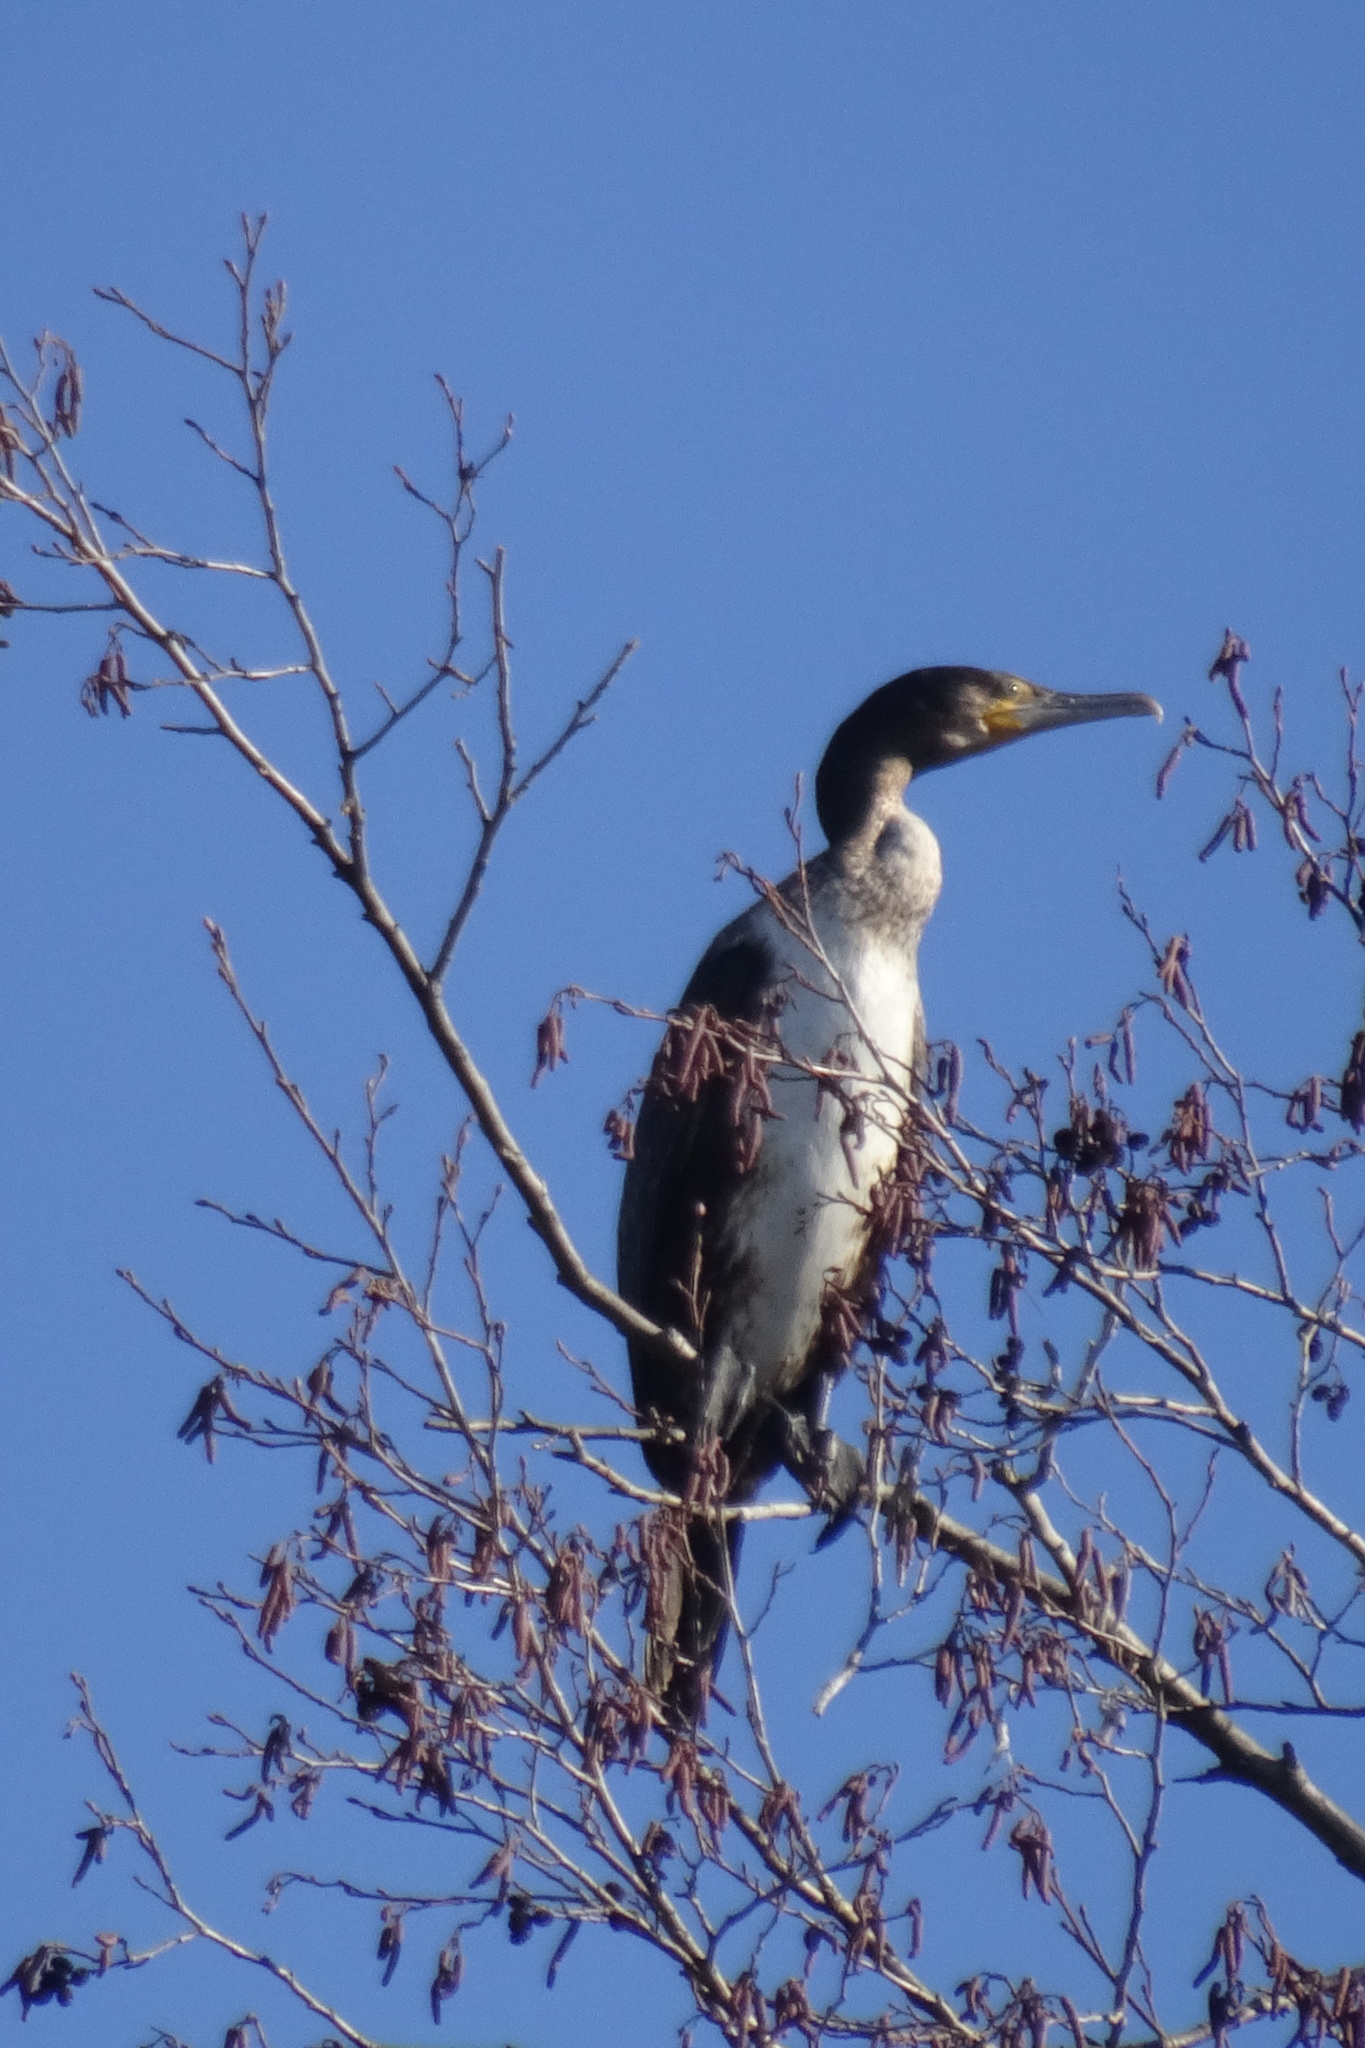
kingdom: Animalia
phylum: Chordata
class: Aves
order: Suliformes
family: Phalacrocoracidae
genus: Phalacrocorax
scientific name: Phalacrocorax carbo
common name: Great cormorant
